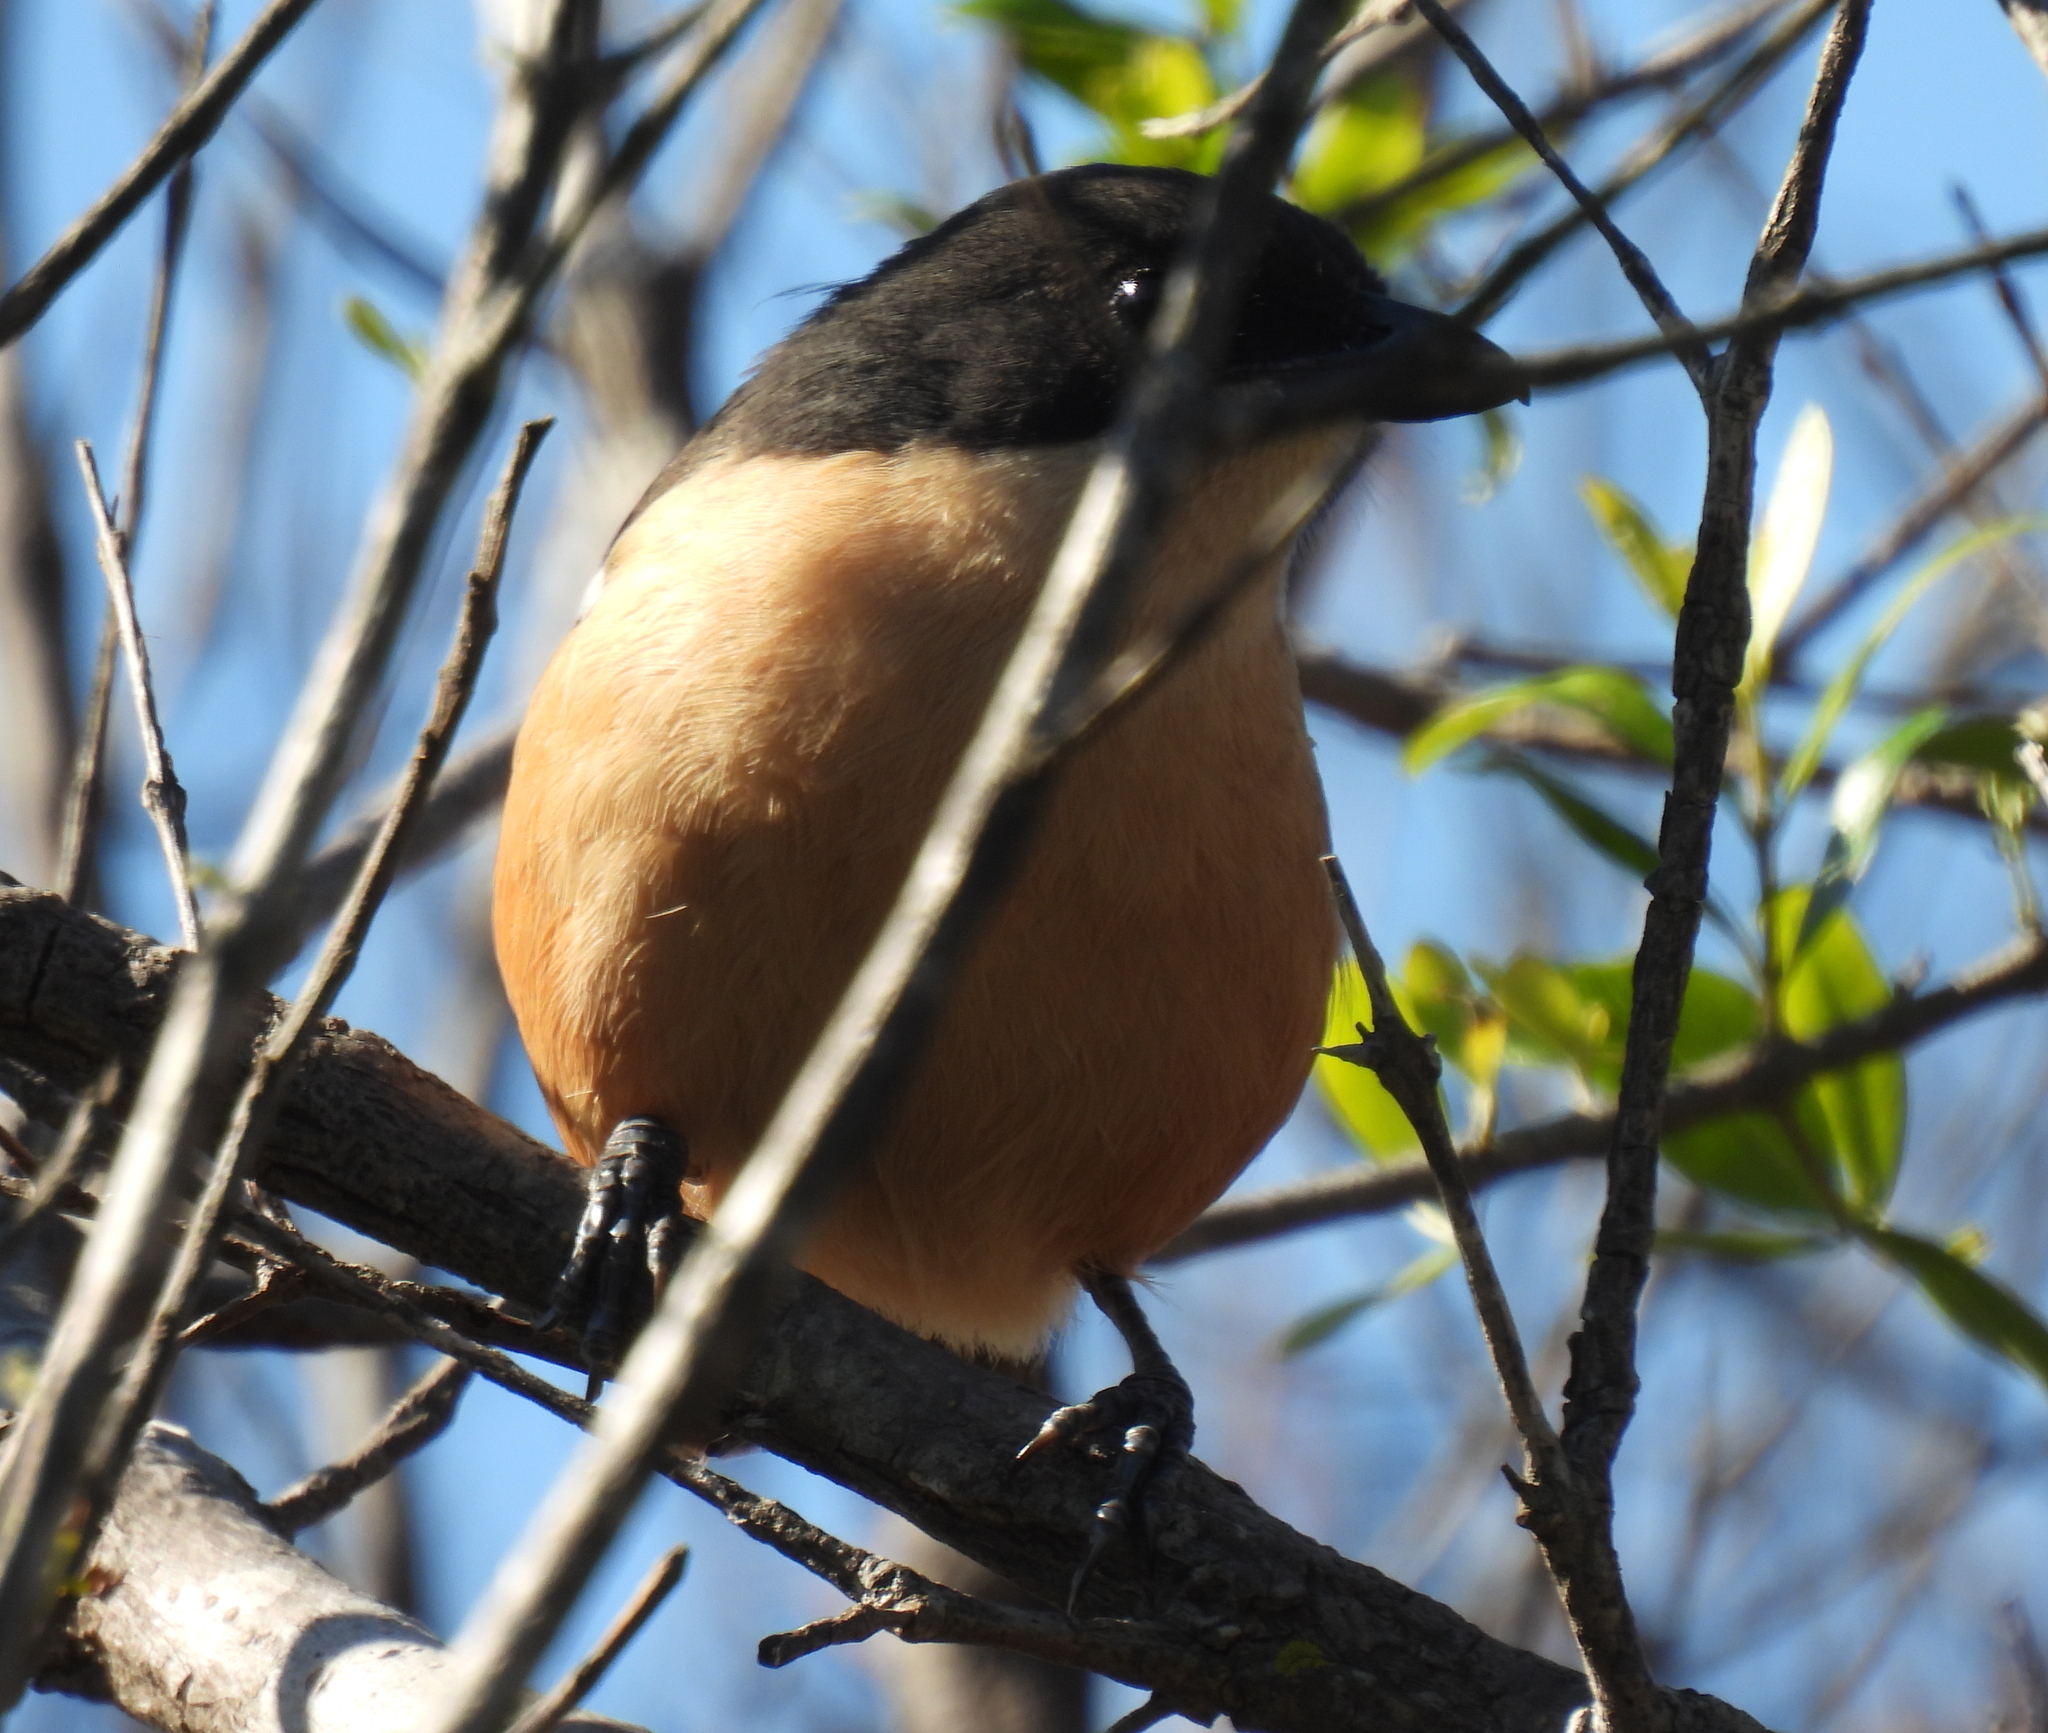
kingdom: Animalia
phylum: Chordata
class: Aves
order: Passeriformes
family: Malaconotidae
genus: Laniarius
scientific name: Laniarius ferrugineus
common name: Southern boubou
